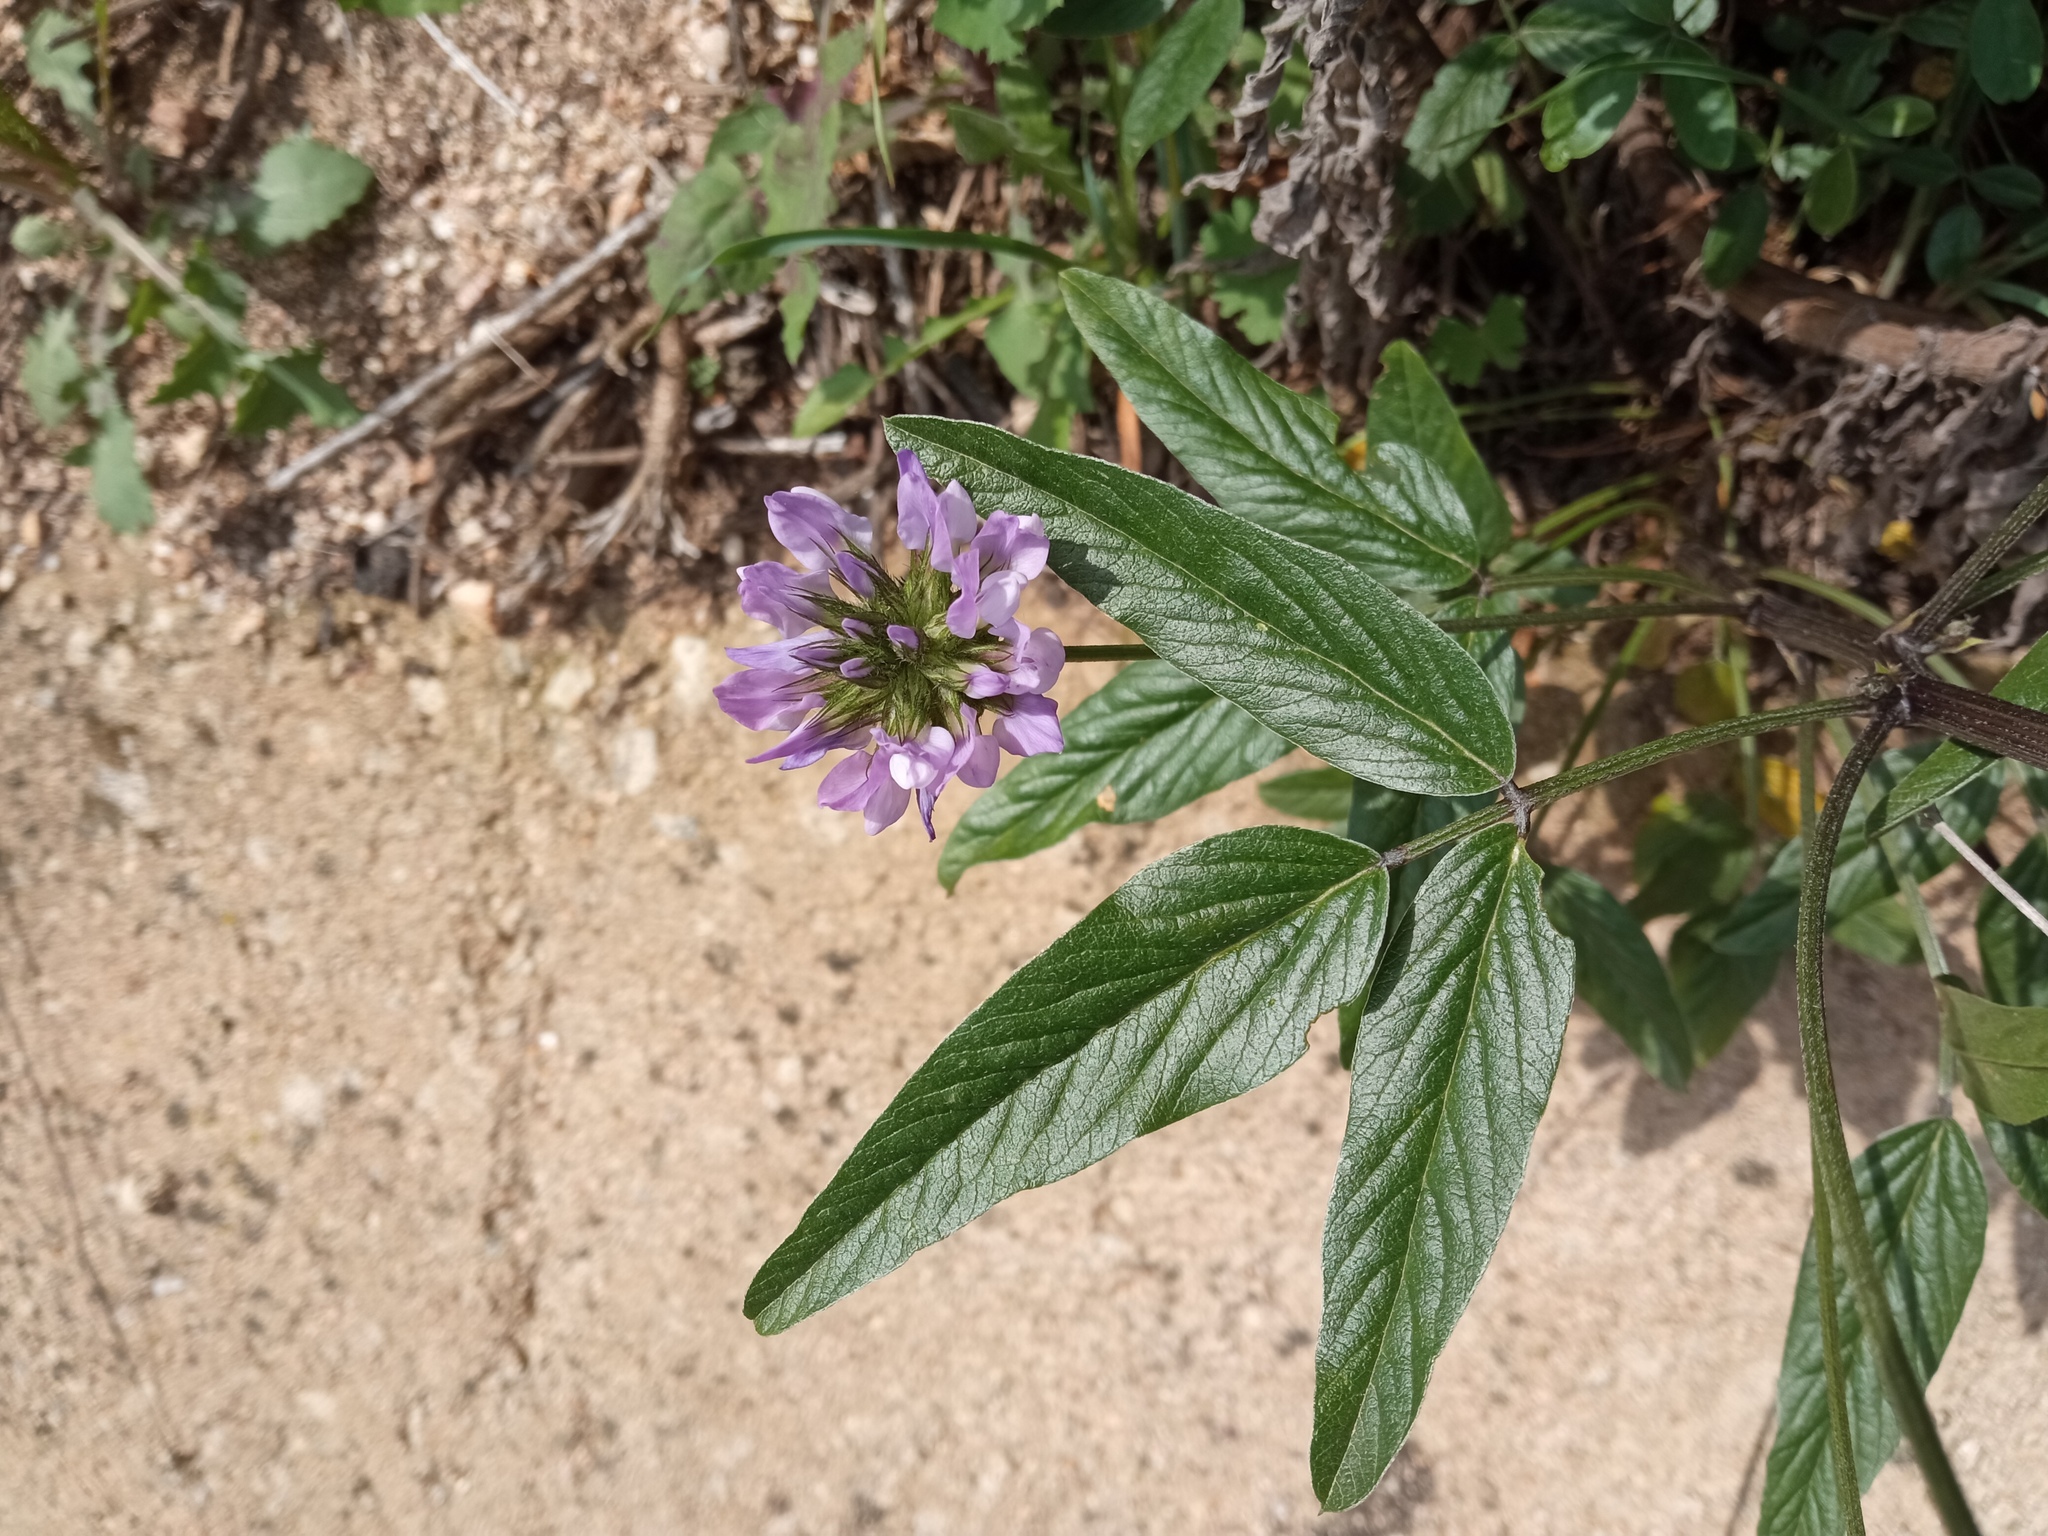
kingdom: Plantae
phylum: Tracheophyta
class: Magnoliopsida
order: Fabales
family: Fabaceae
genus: Bituminaria
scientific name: Bituminaria bituminosa
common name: Arabian pea
